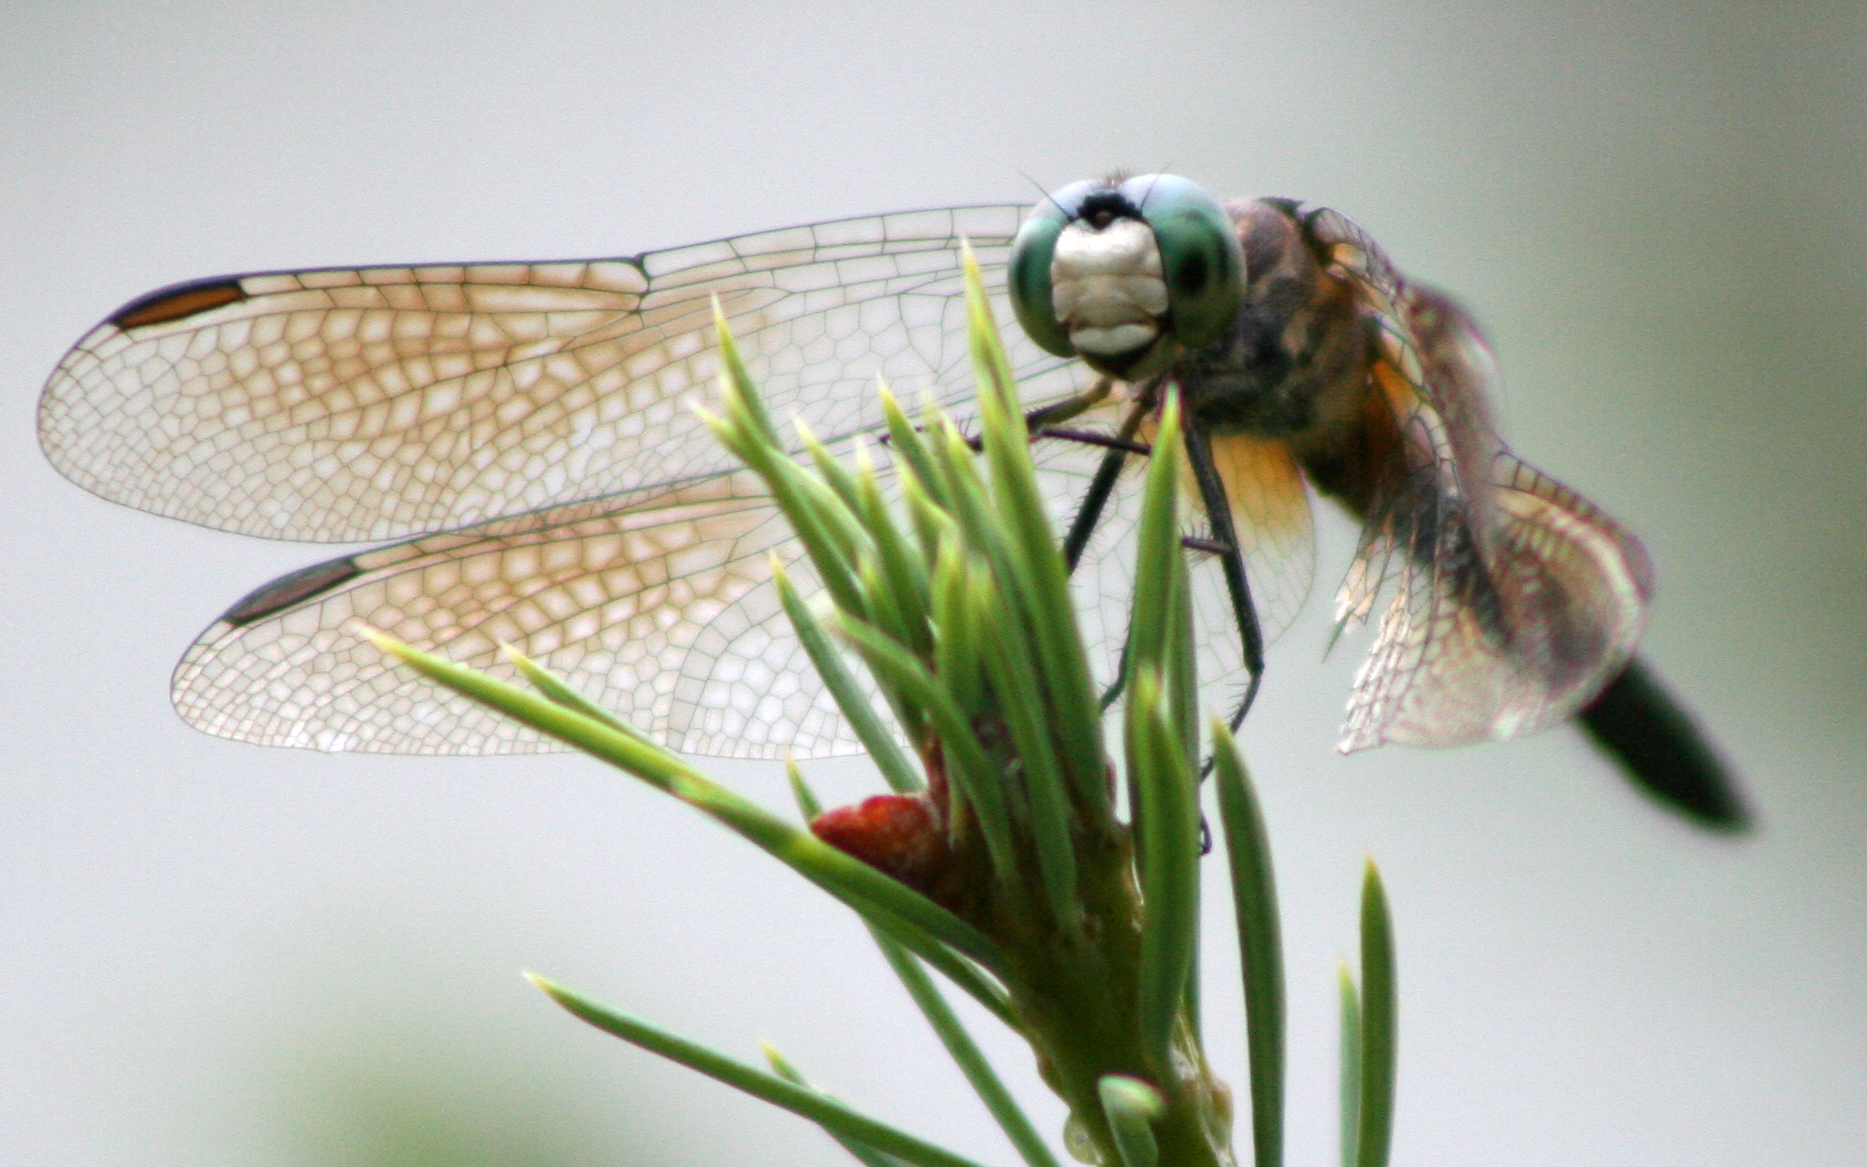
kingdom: Animalia
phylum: Arthropoda
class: Insecta
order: Odonata
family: Libellulidae
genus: Pachydiplax
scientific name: Pachydiplax longipennis
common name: Blue dasher
